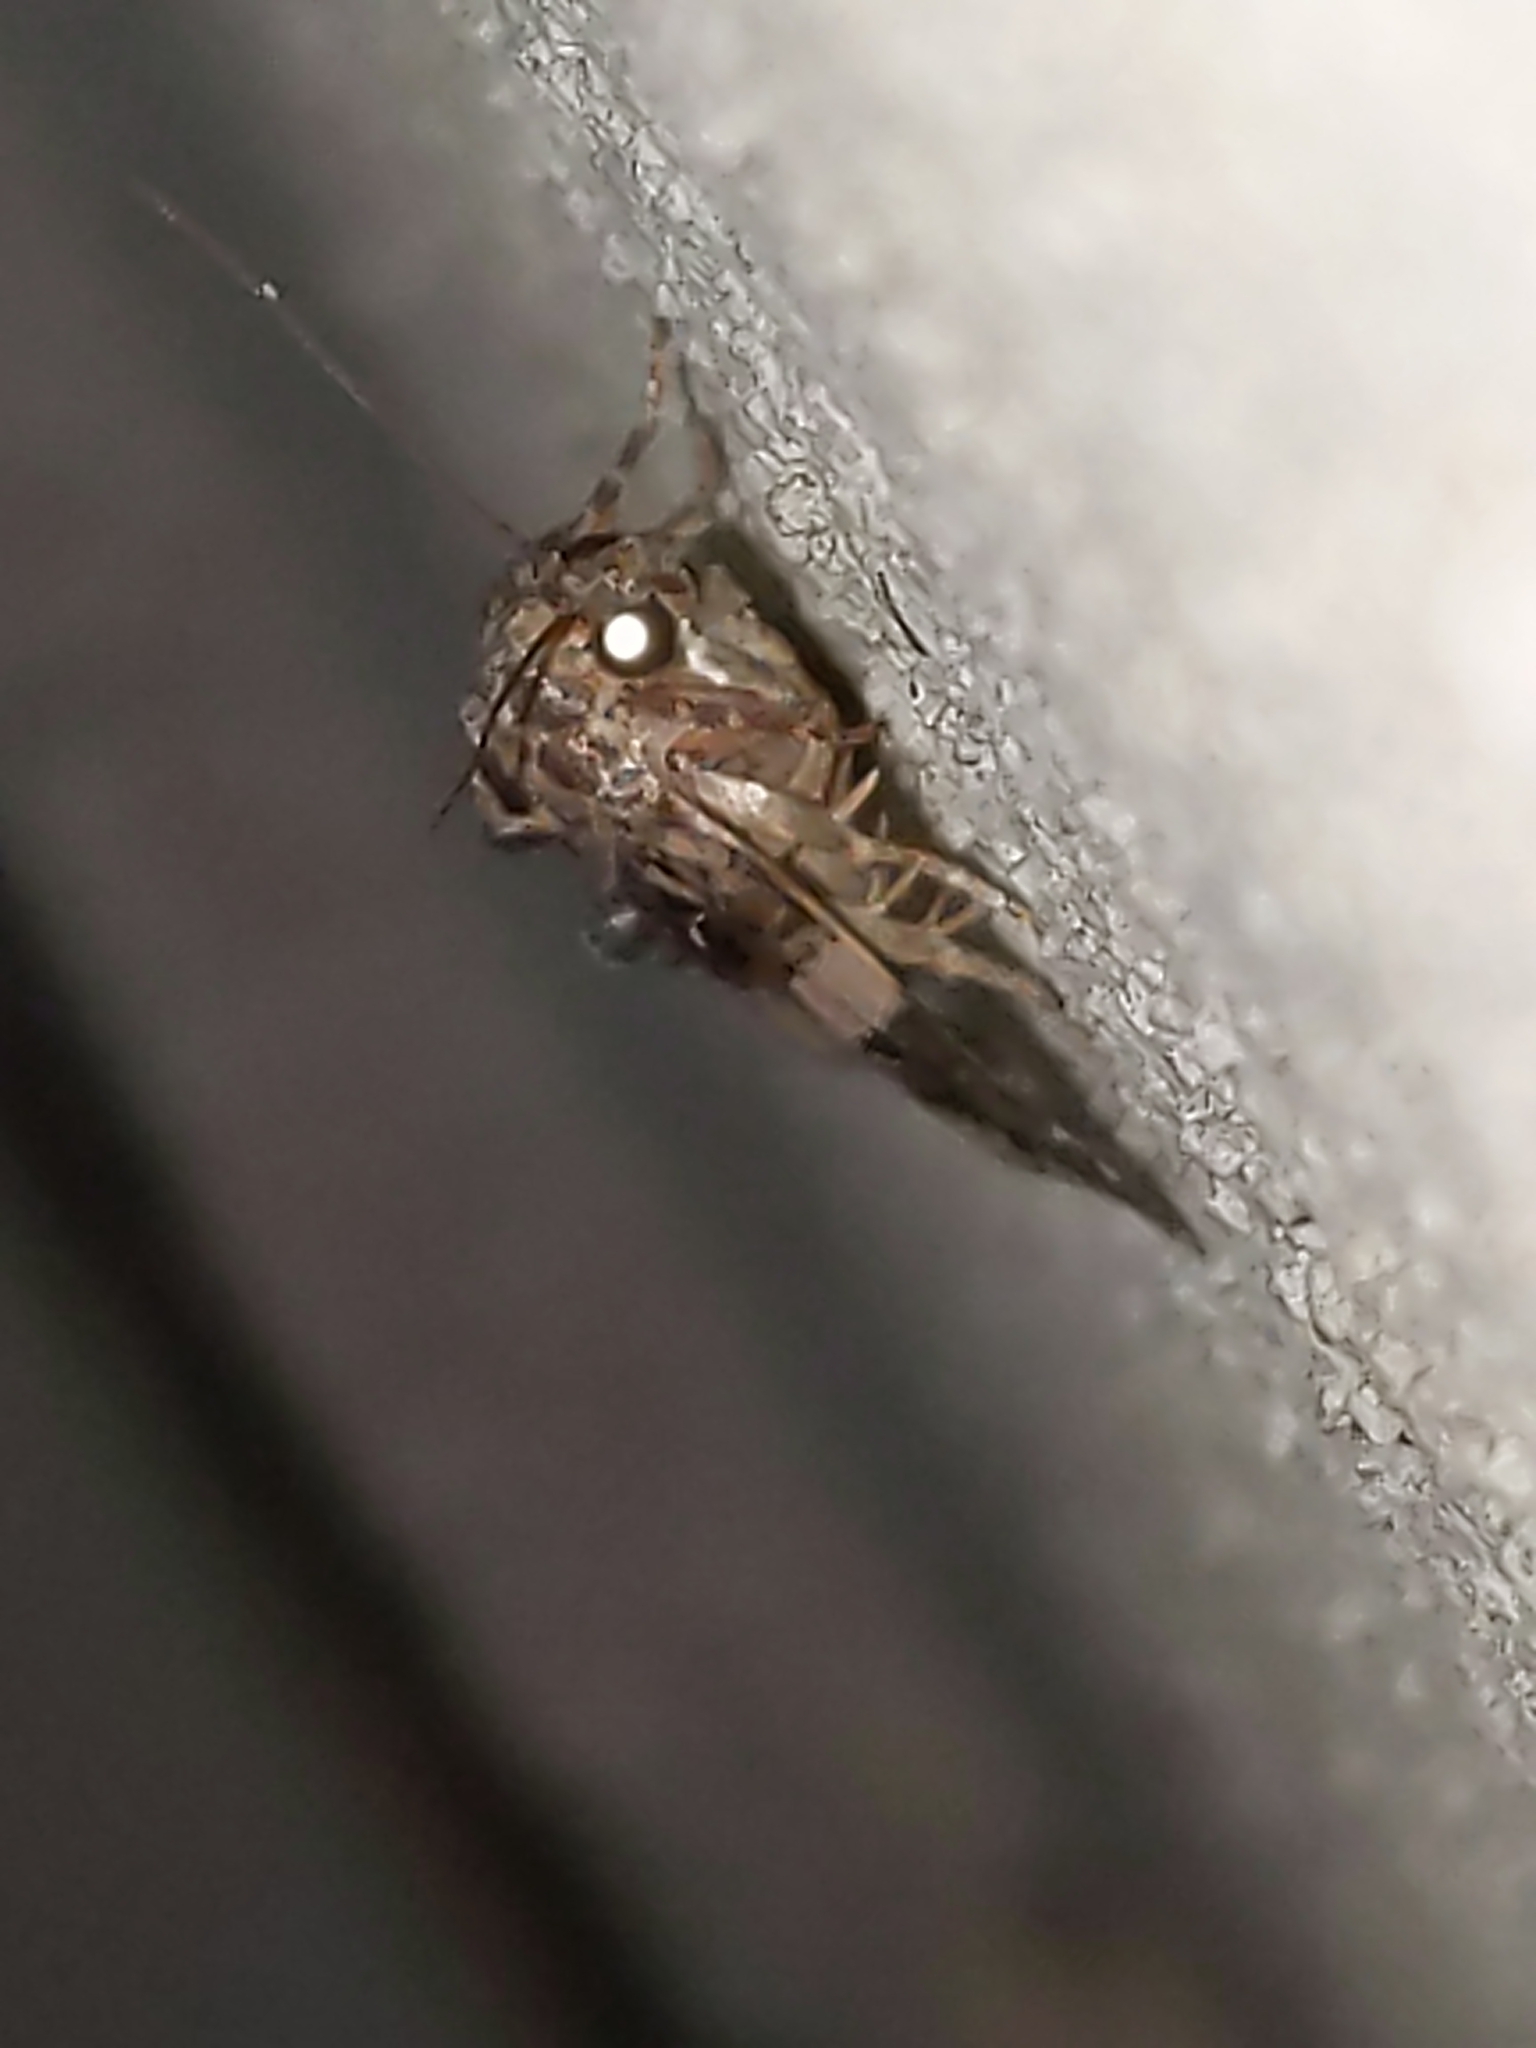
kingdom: Animalia
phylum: Arthropoda
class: Insecta
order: Lepidoptera
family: Noctuidae
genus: Pseudeustrotia
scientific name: Pseudeustrotia carneola
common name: Pink-barred lithacodia moth
